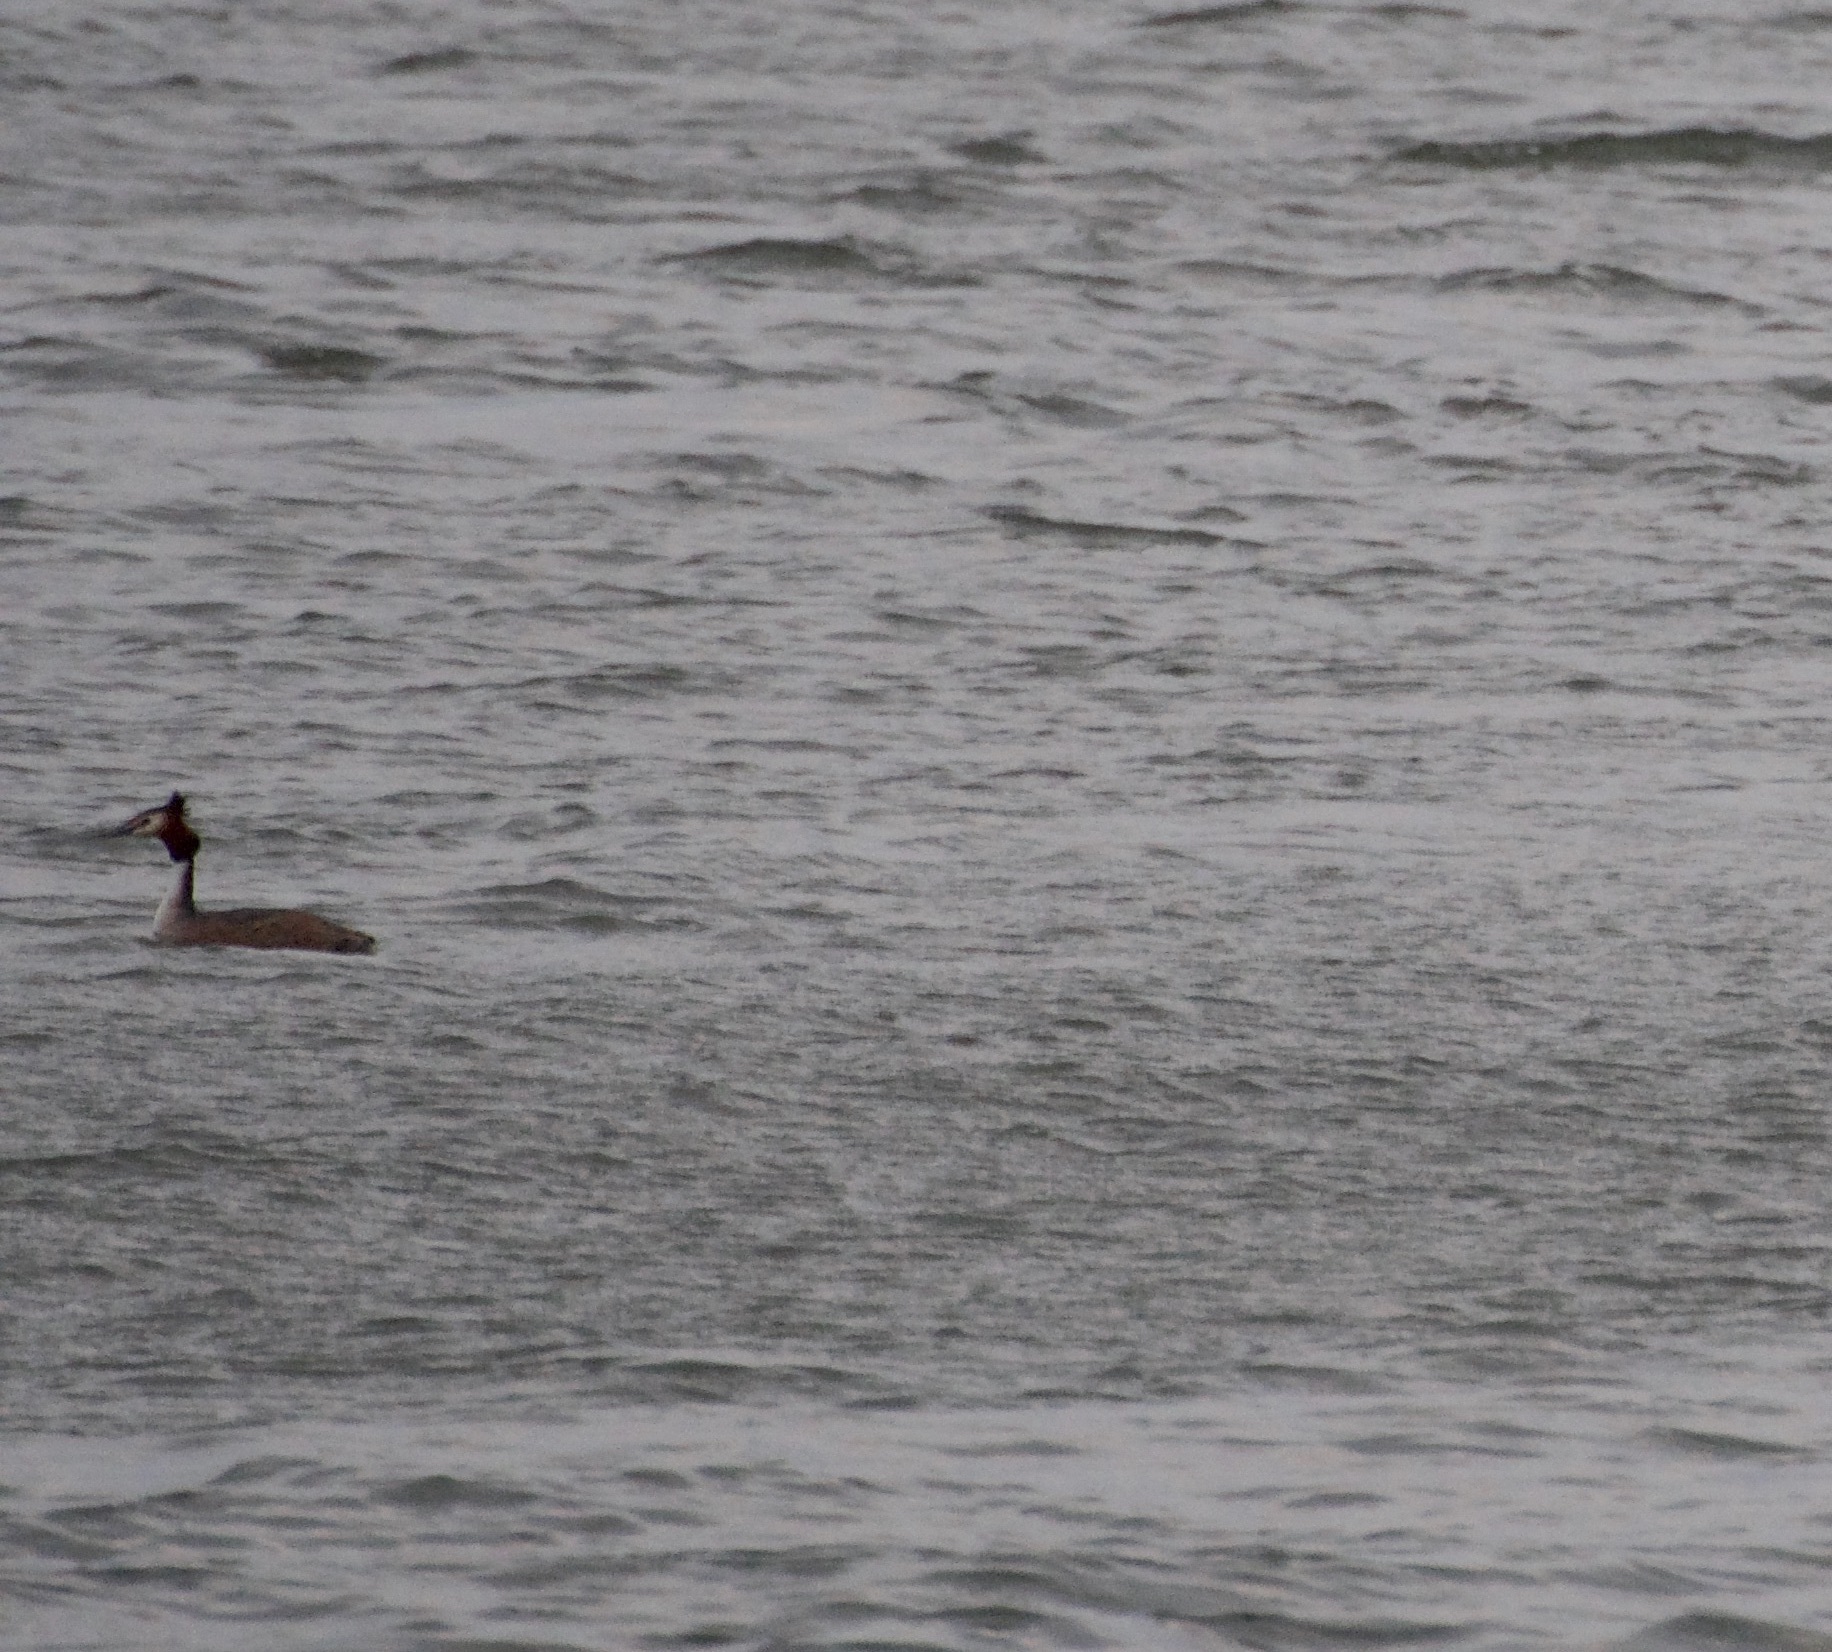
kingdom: Animalia
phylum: Chordata
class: Aves
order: Podicipediformes
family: Podicipedidae
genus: Podiceps
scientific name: Podiceps cristatus
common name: Great crested grebe
